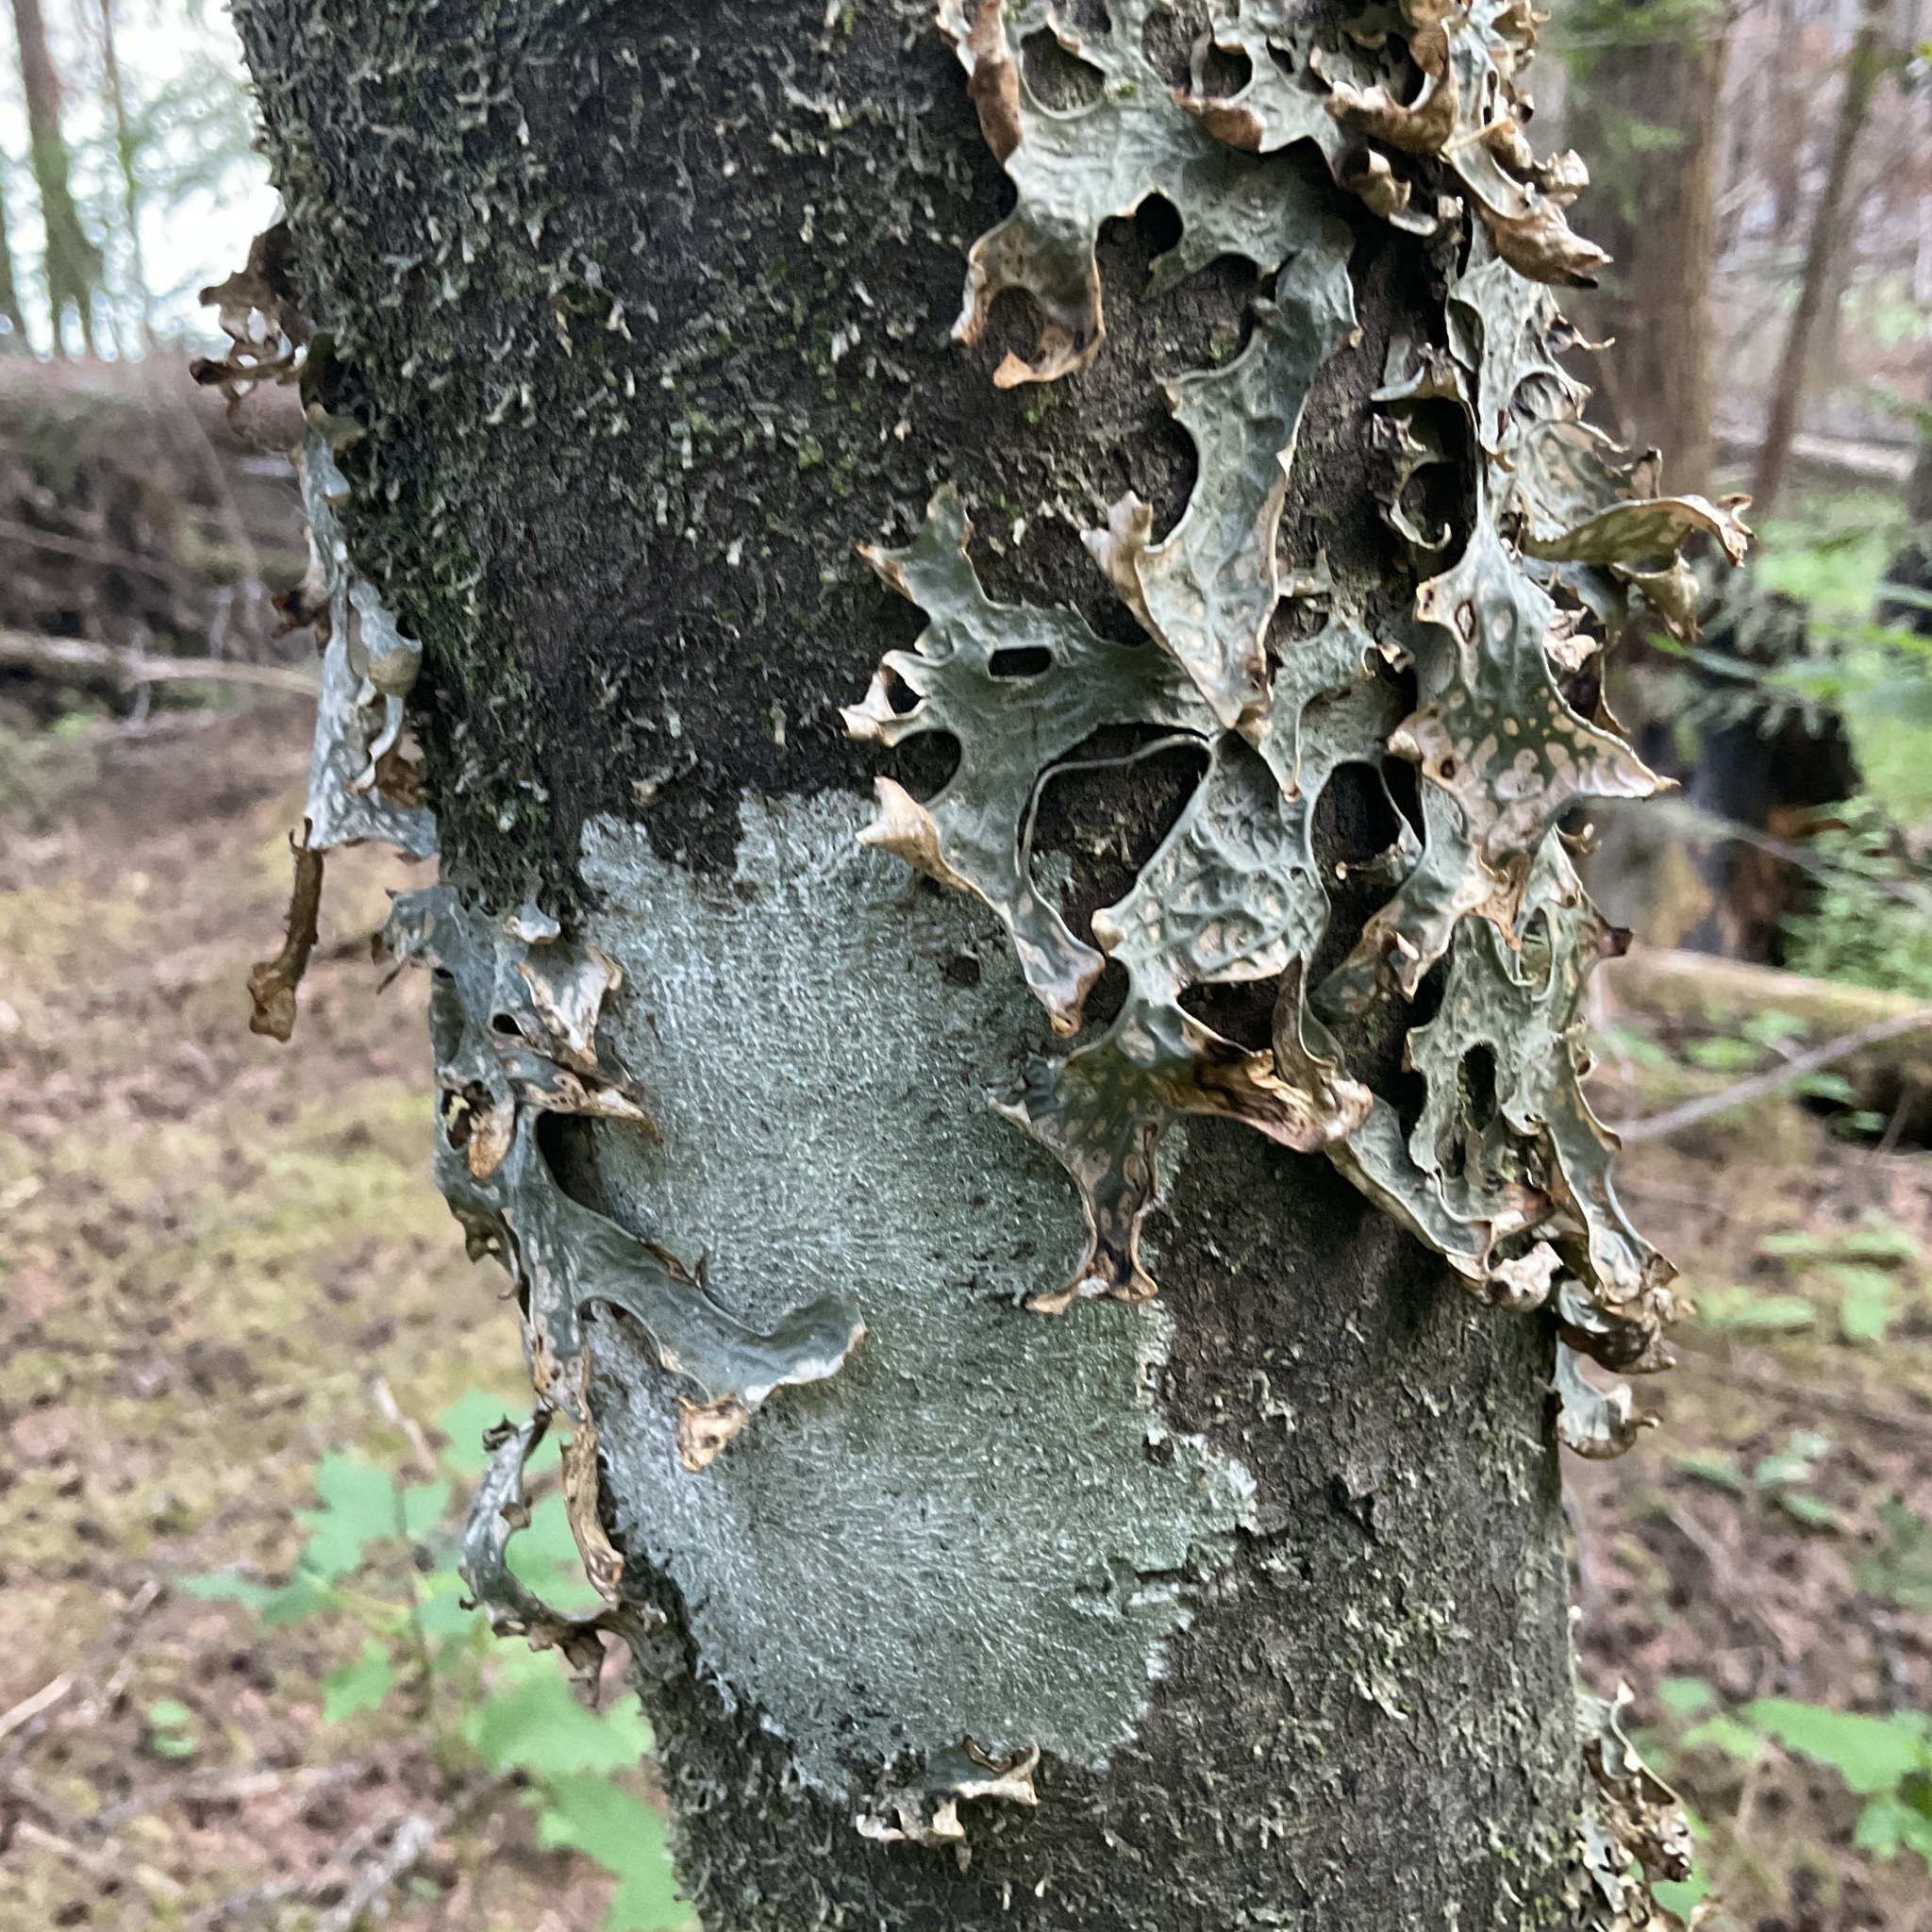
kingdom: Fungi
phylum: Ascomycota
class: Lecanoromycetes
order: Peltigerales
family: Lobariaceae
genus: Lobaria
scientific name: Lobaria pulmonaria
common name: Lungwort
